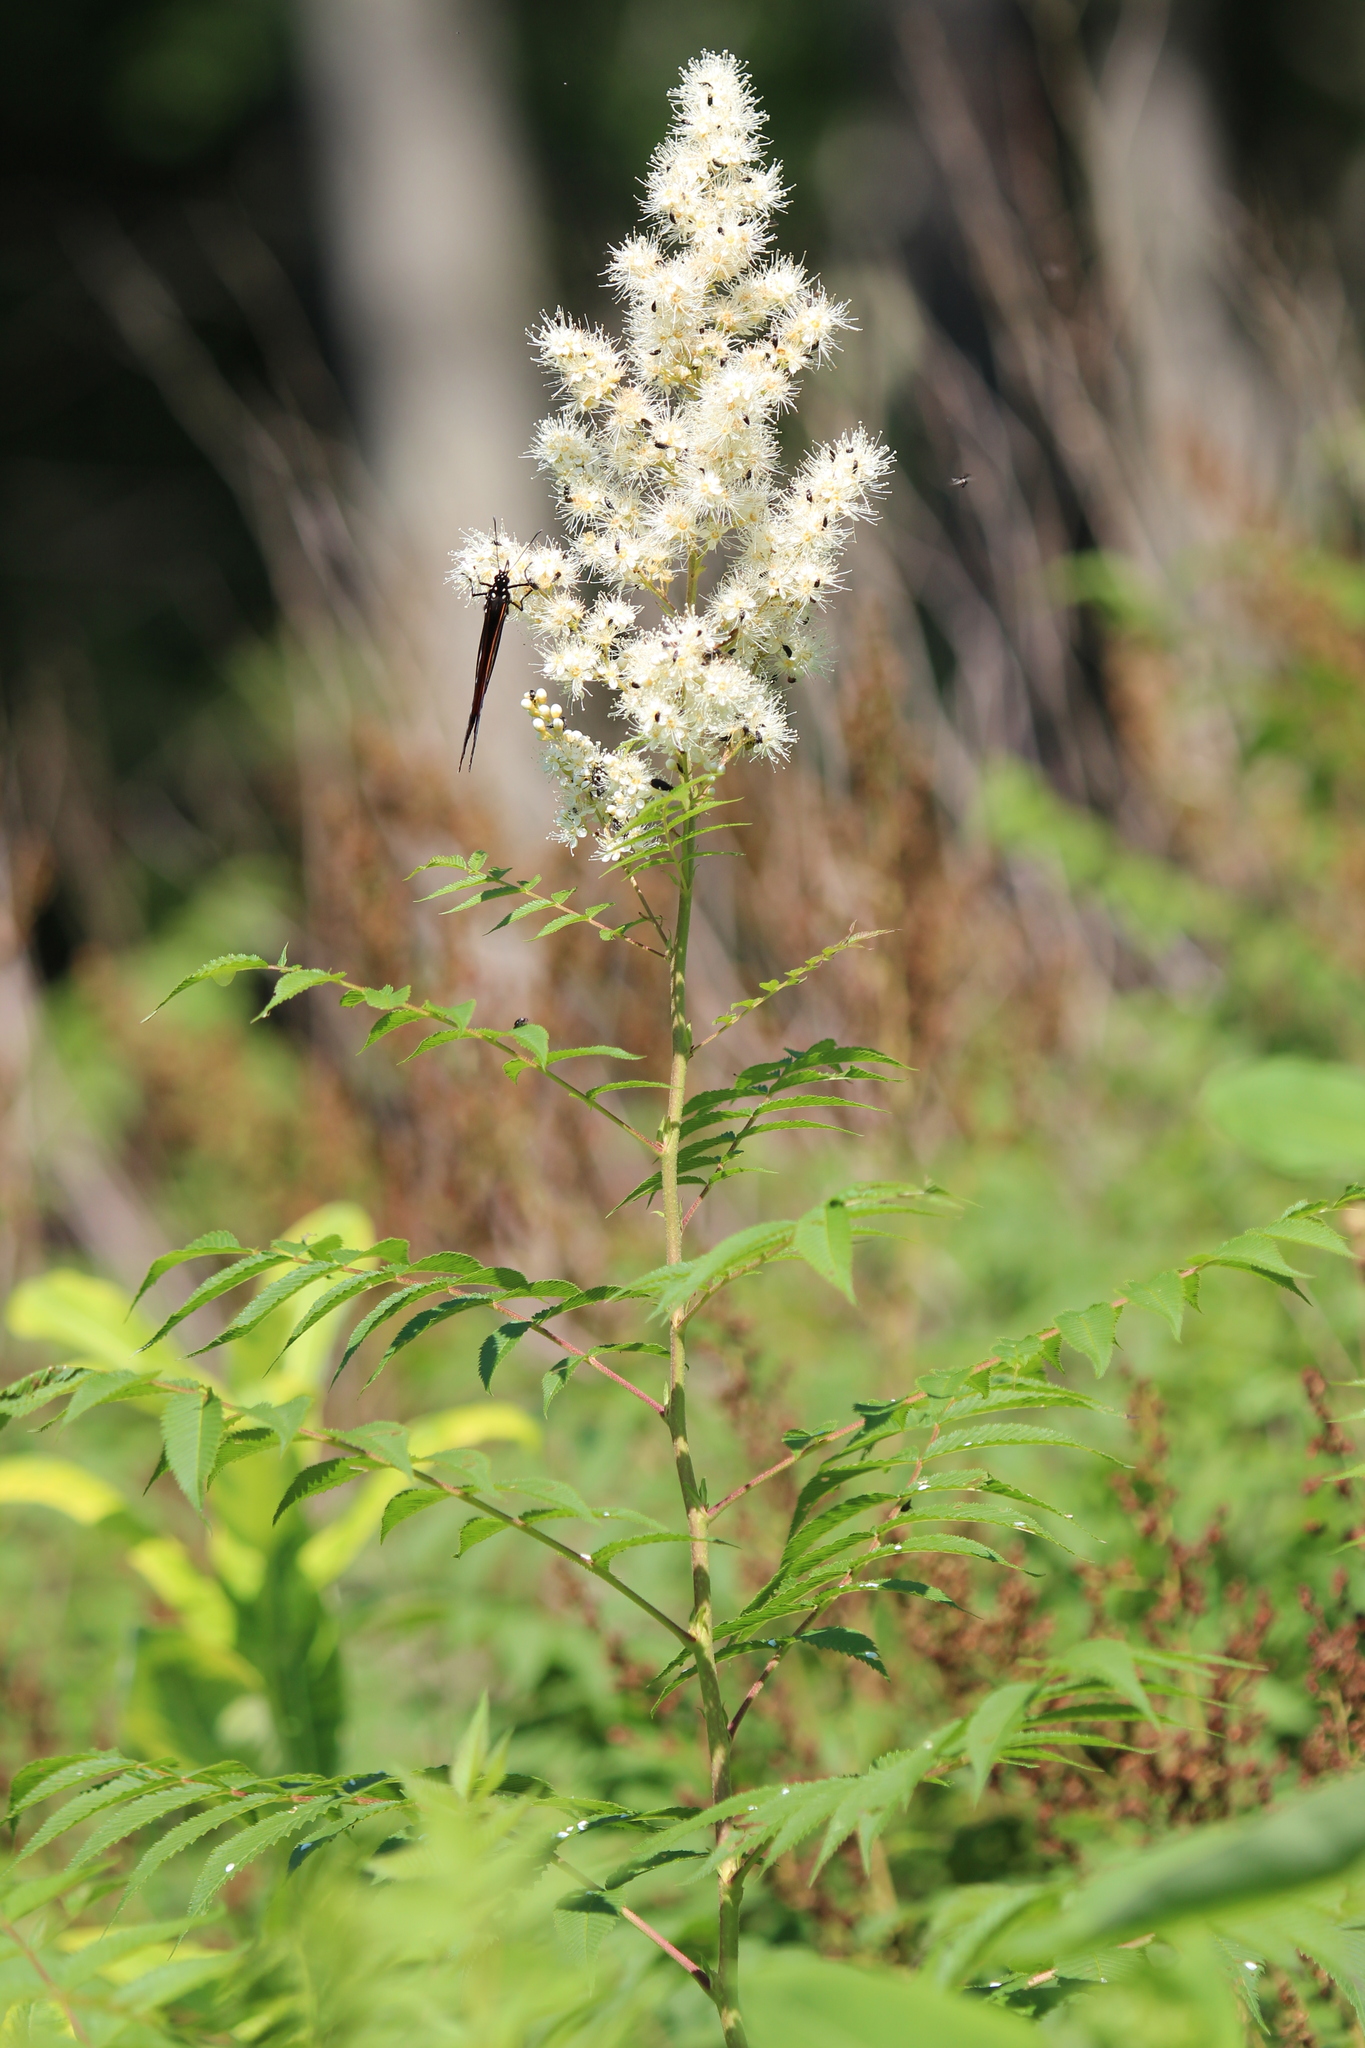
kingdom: Plantae
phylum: Tracheophyta
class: Magnoliopsida
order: Rosales
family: Rosaceae
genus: Sorbaria
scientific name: Sorbaria sorbifolia
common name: False spiraea
